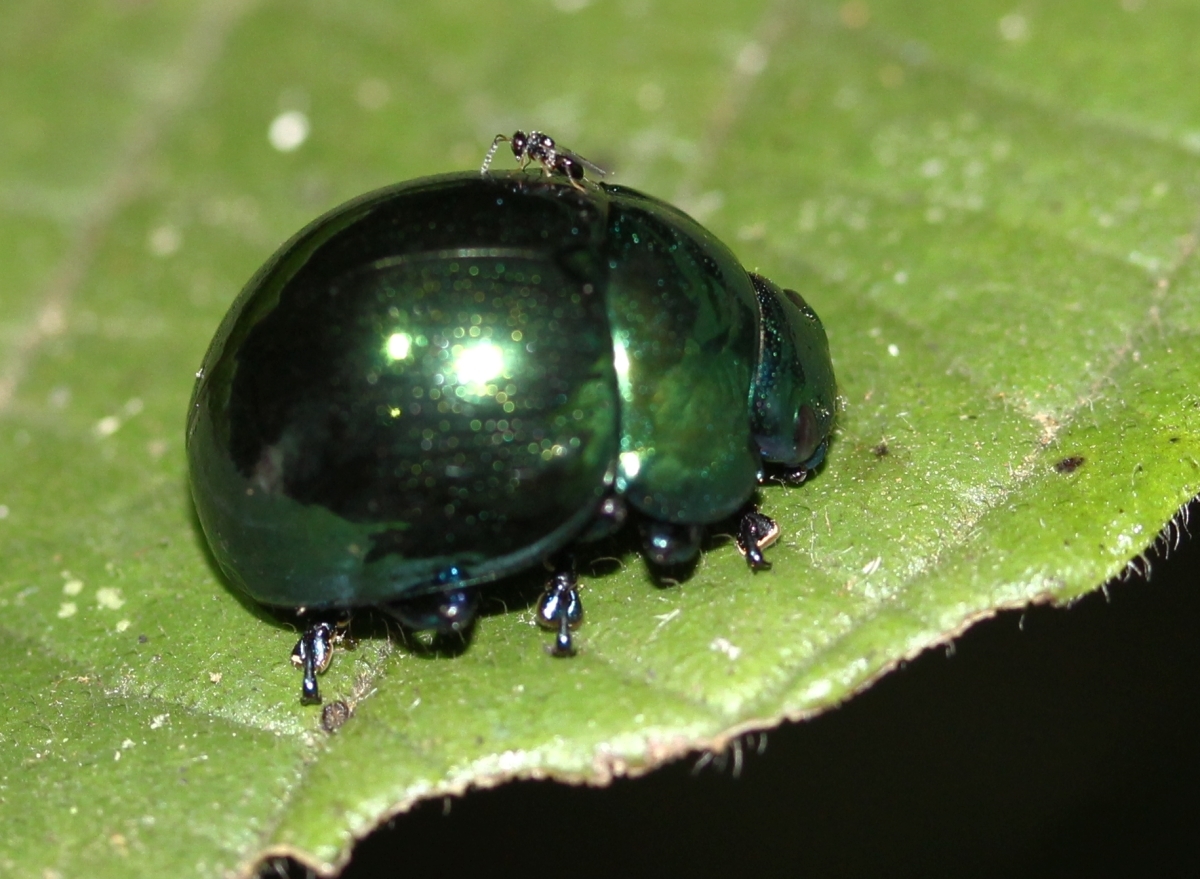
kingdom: Animalia
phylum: Arthropoda
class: Insecta
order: Coleoptera
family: Chrysomelidae
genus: Platyphora
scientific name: Platyphora
